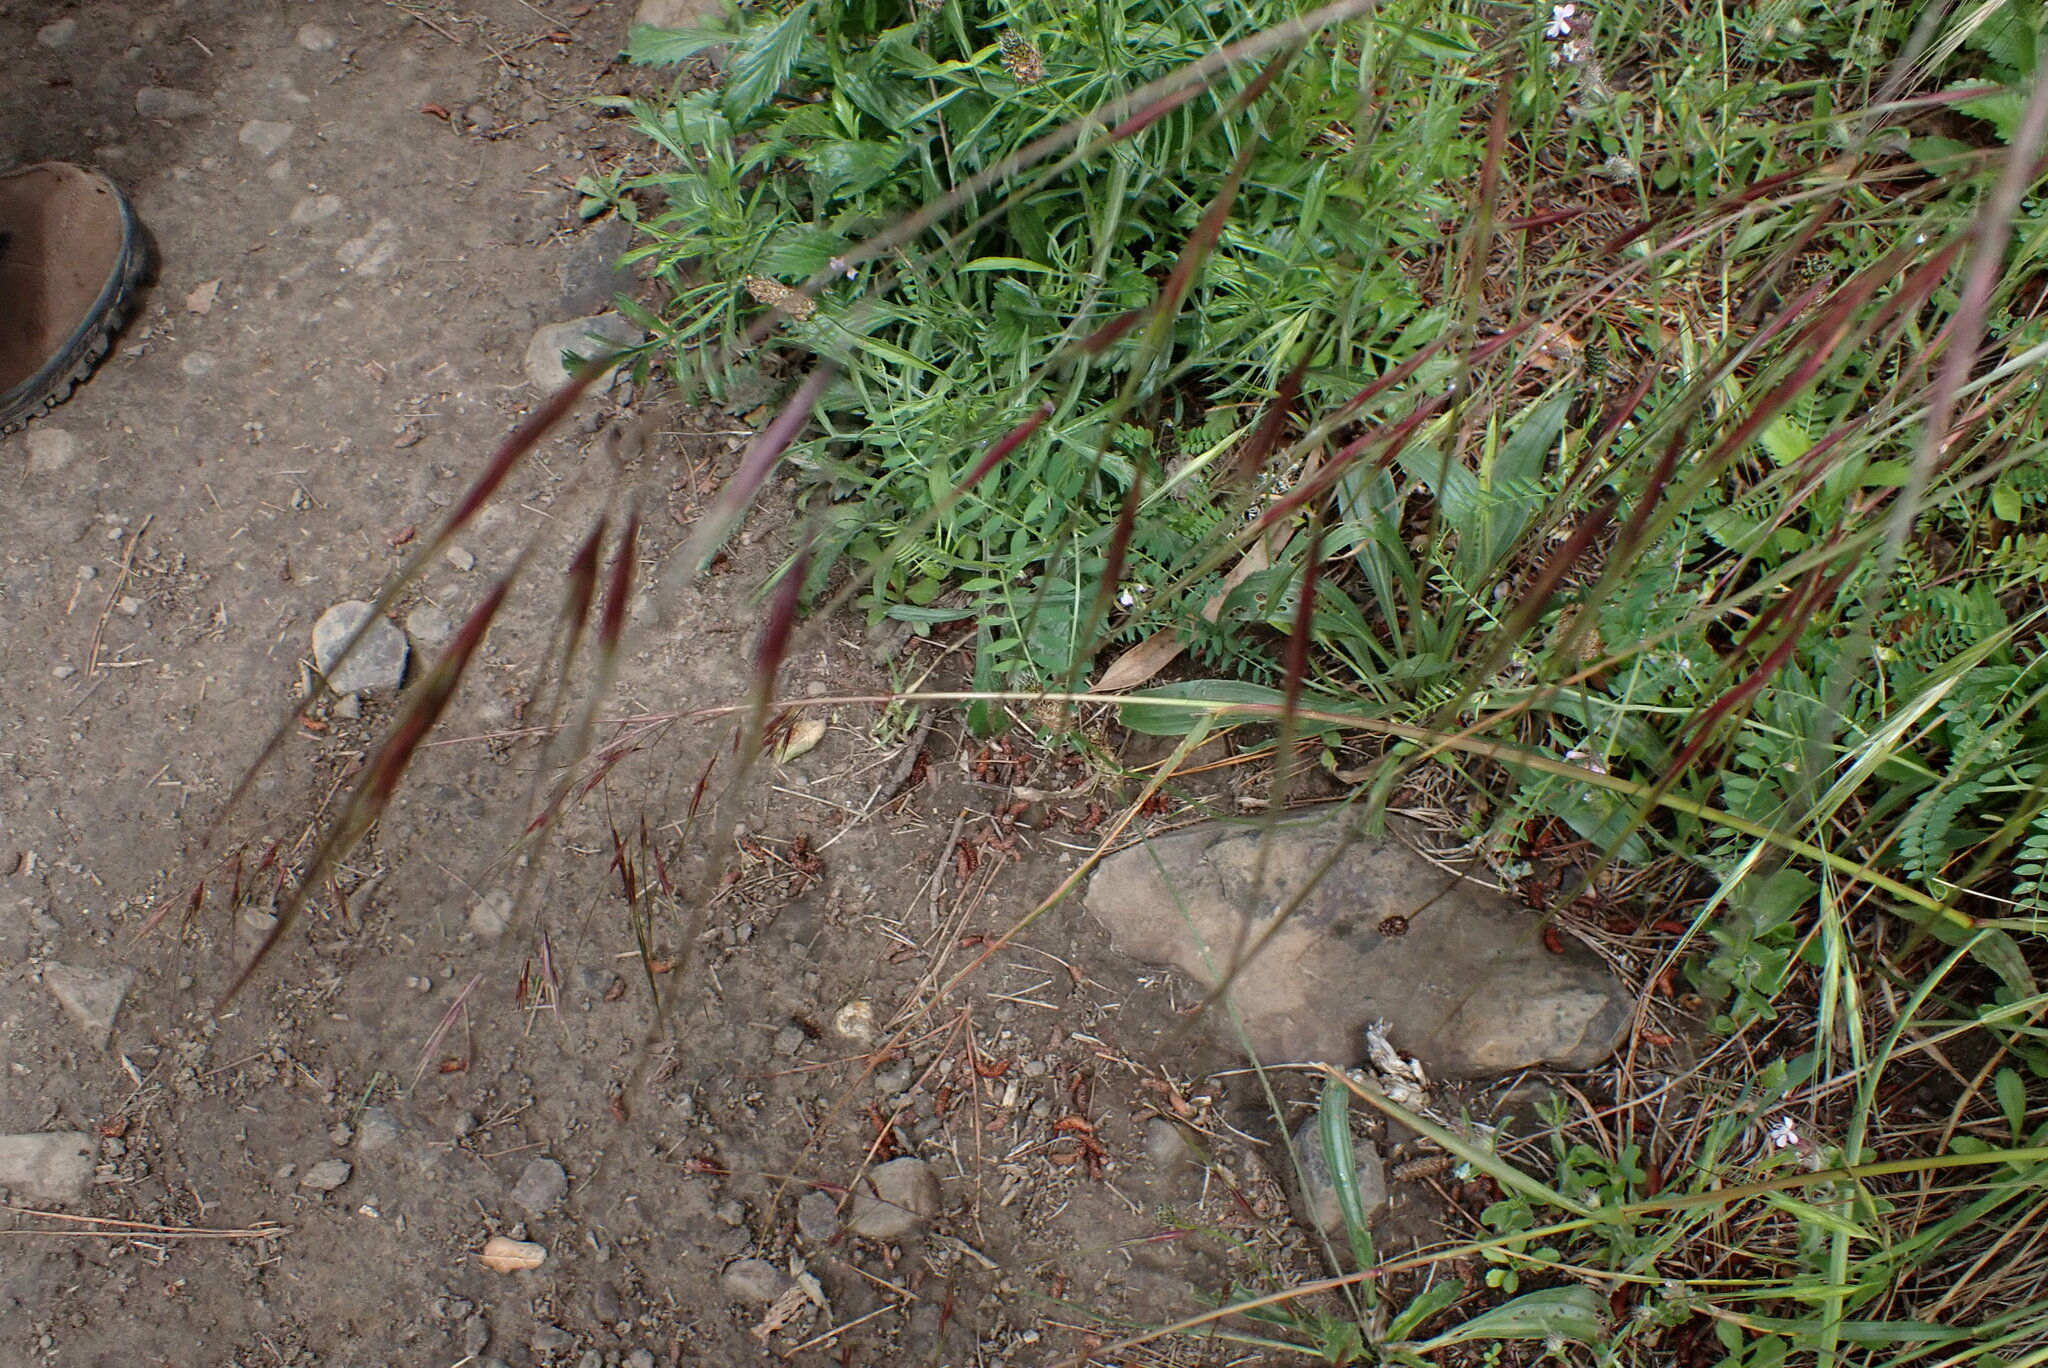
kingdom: Plantae
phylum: Tracheophyta
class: Liliopsida
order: Poales
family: Poaceae
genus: Nassella
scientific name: Nassella pulchra
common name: Purple needlegrass
